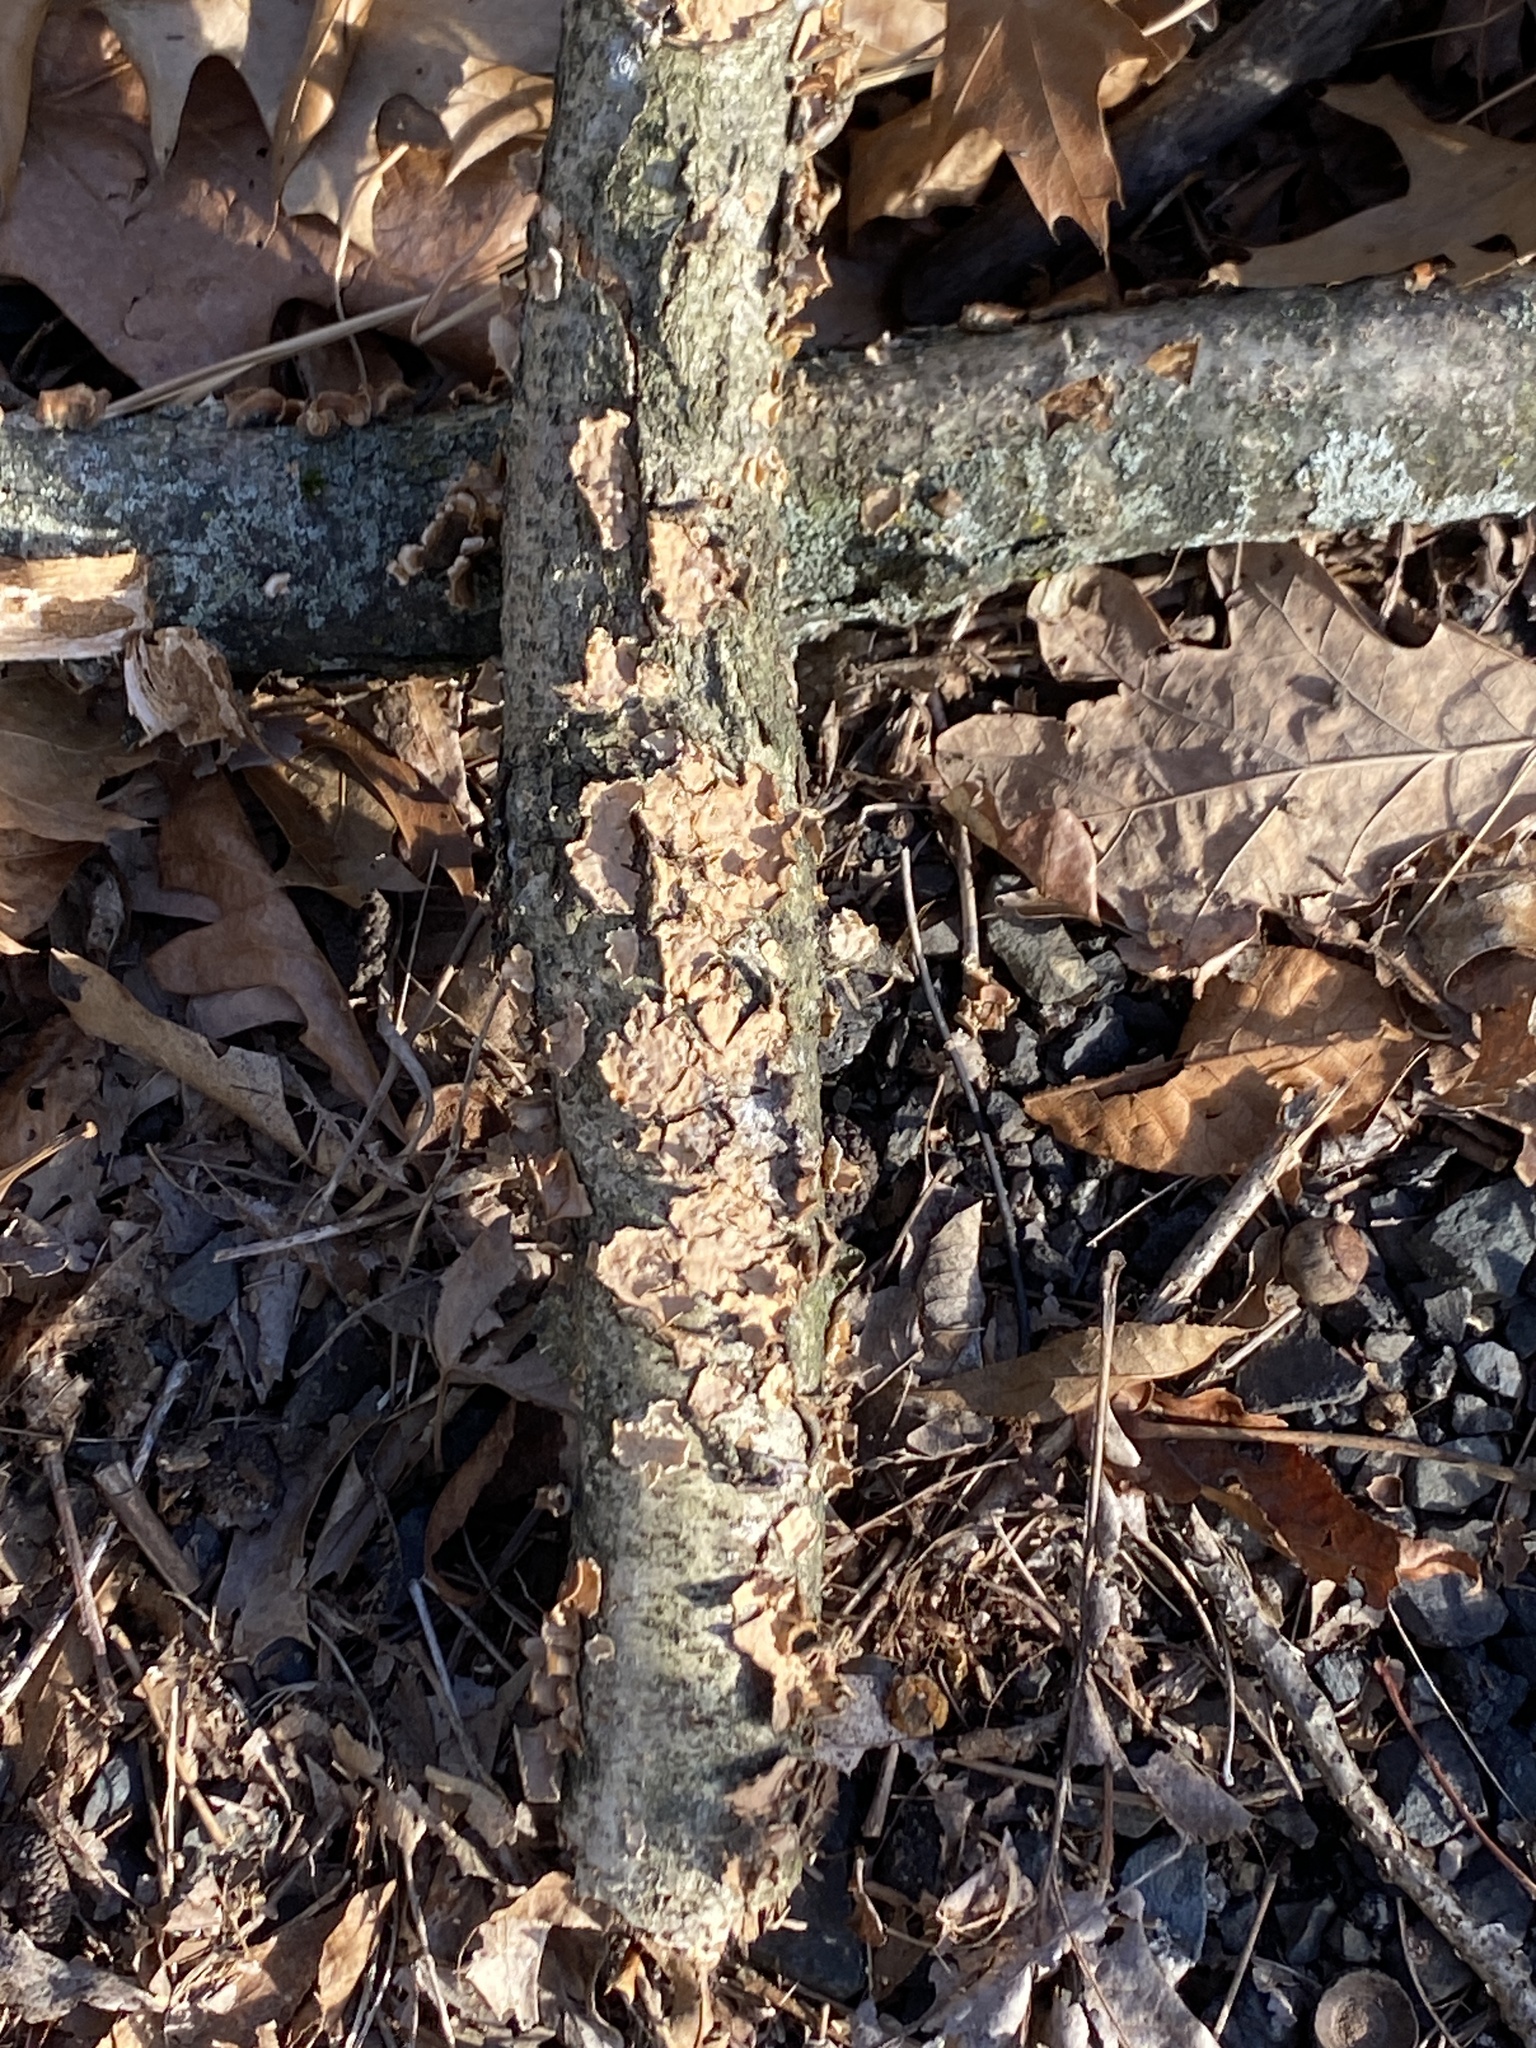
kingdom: Fungi
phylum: Basidiomycota
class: Agaricomycetes
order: Russulales
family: Stereaceae
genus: Stereum
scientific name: Stereum complicatum
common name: Crowded parchment
